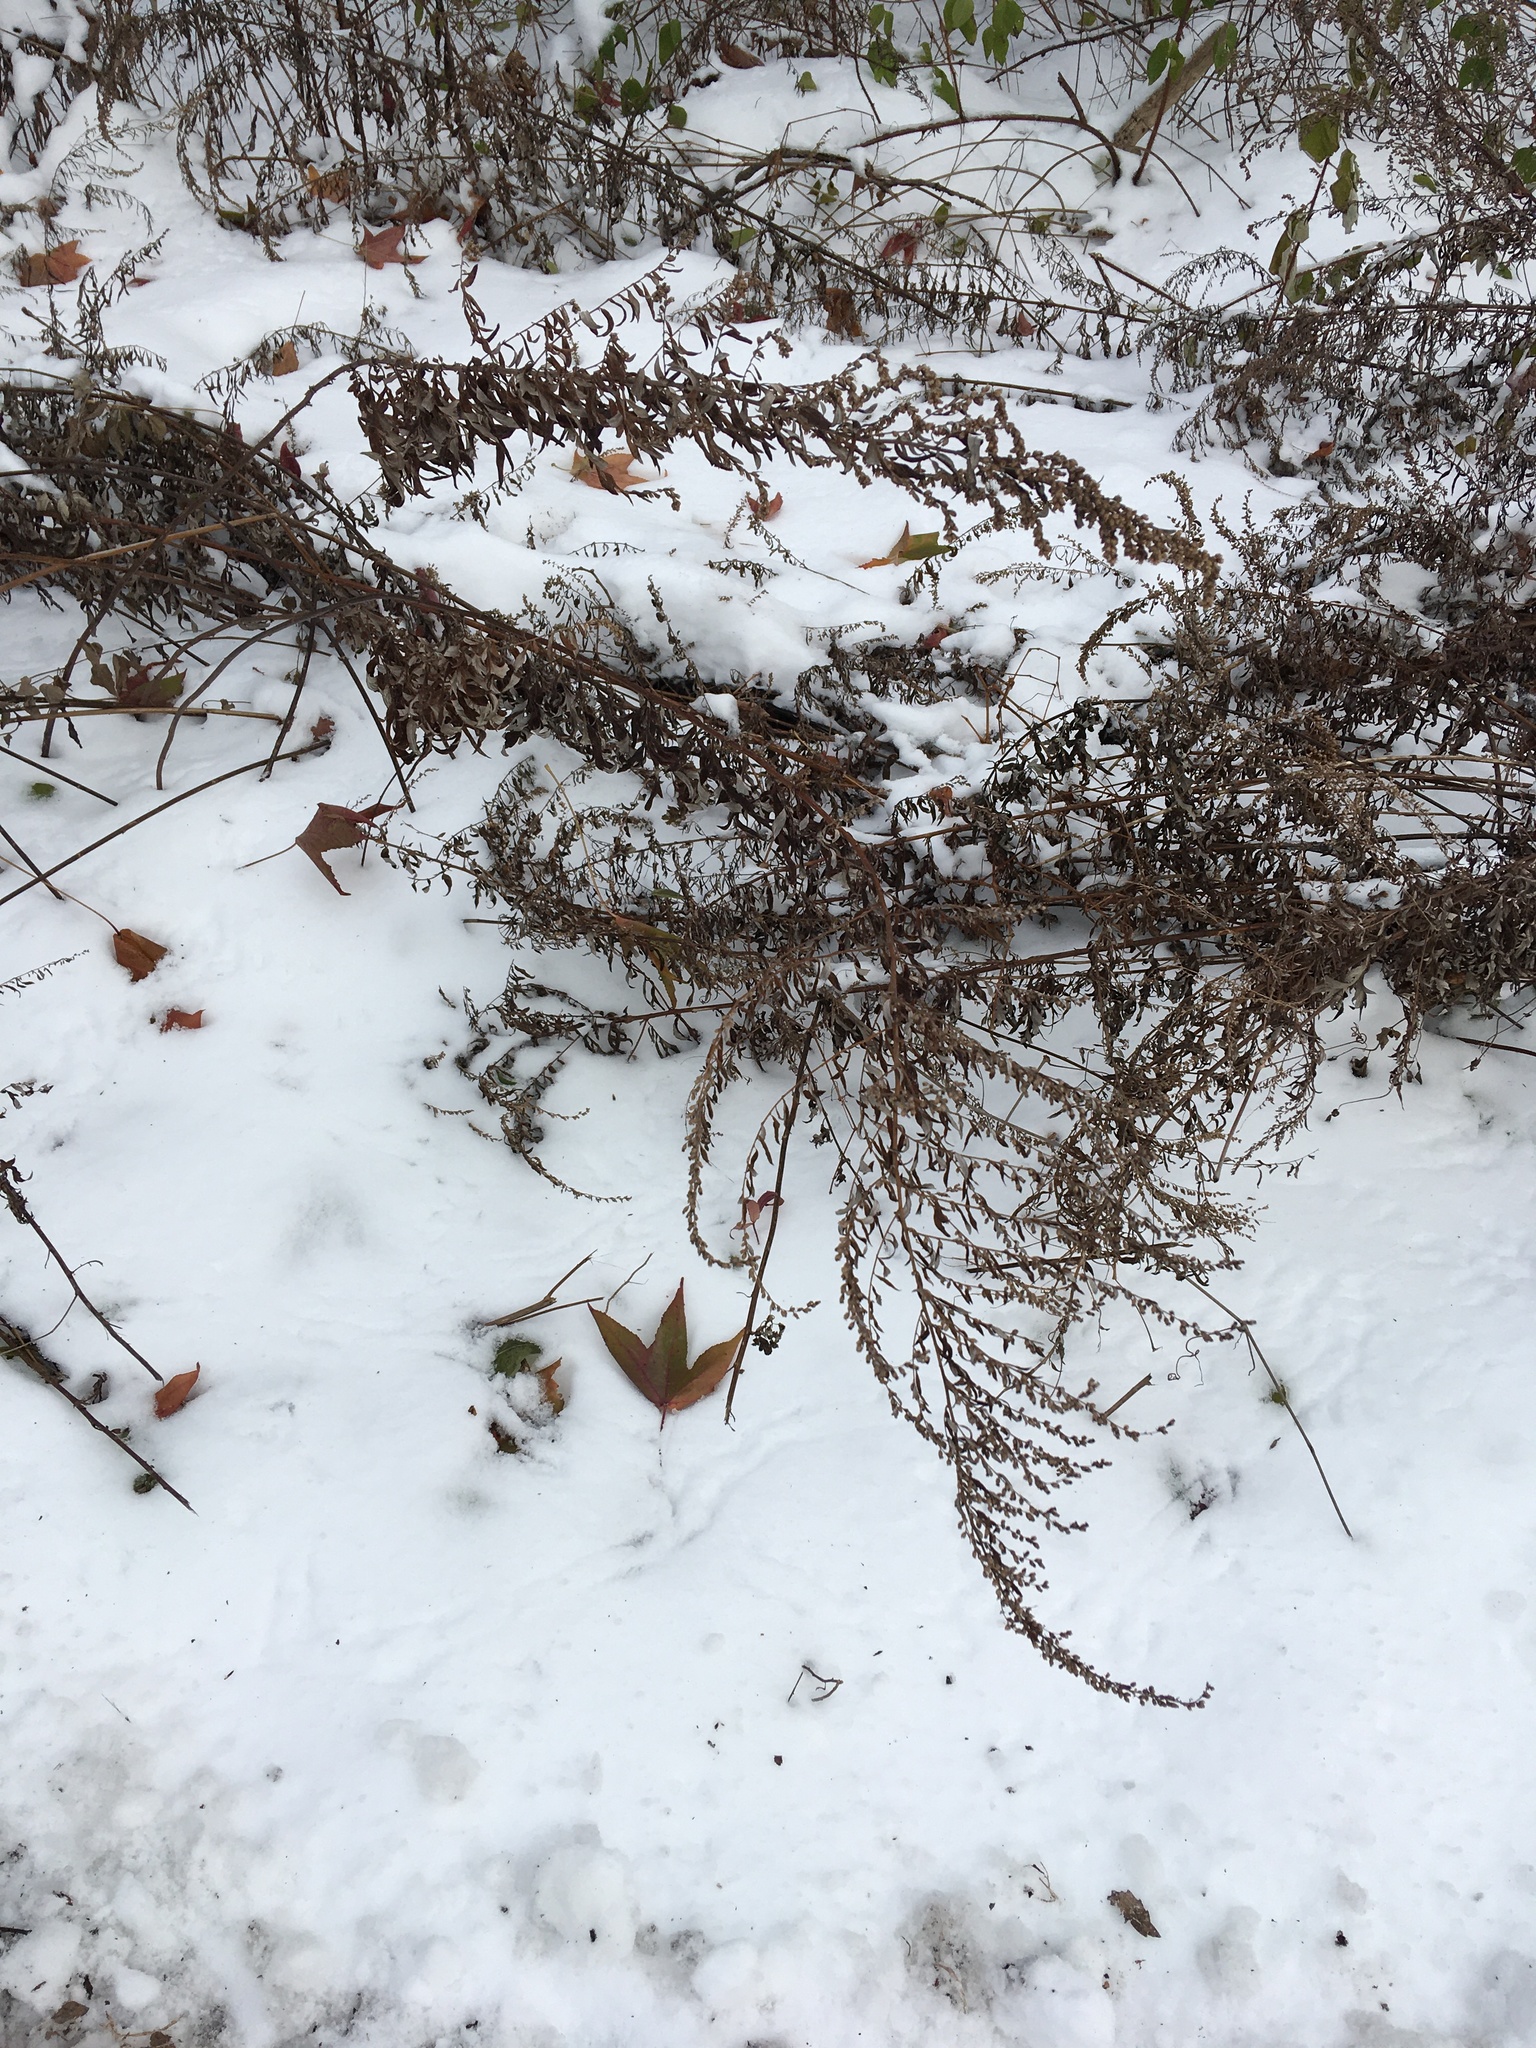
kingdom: Plantae
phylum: Tracheophyta
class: Magnoliopsida
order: Asterales
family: Asteraceae
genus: Artemisia
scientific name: Artemisia vulgaris
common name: Mugwort
